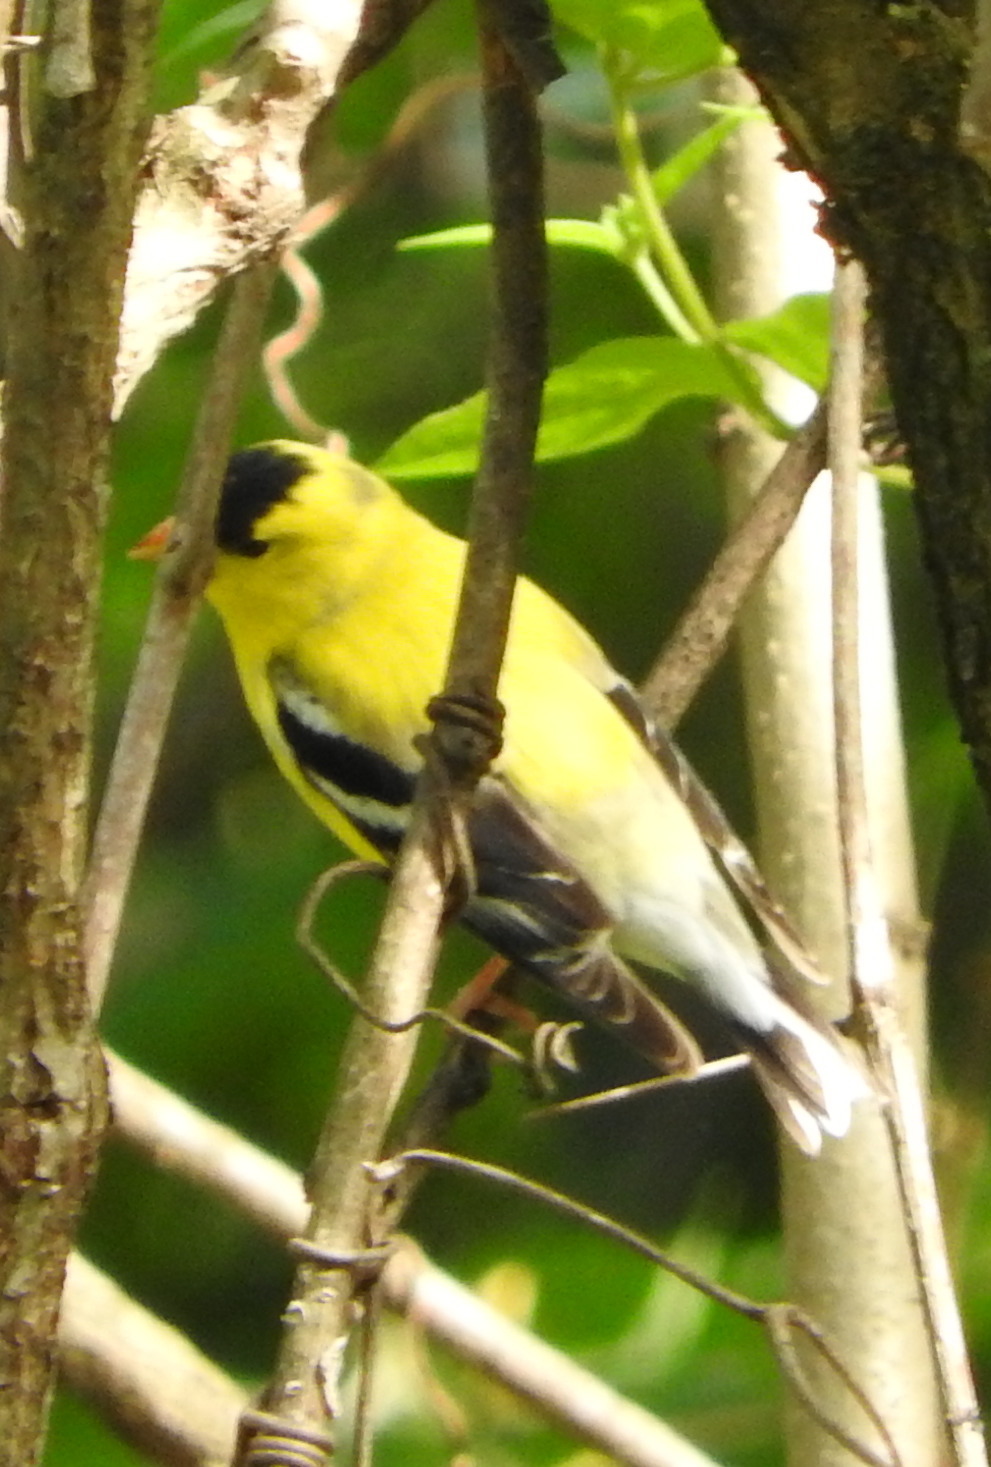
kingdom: Animalia
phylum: Chordata
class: Aves
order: Passeriformes
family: Fringillidae
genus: Spinus
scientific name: Spinus tristis
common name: American goldfinch
